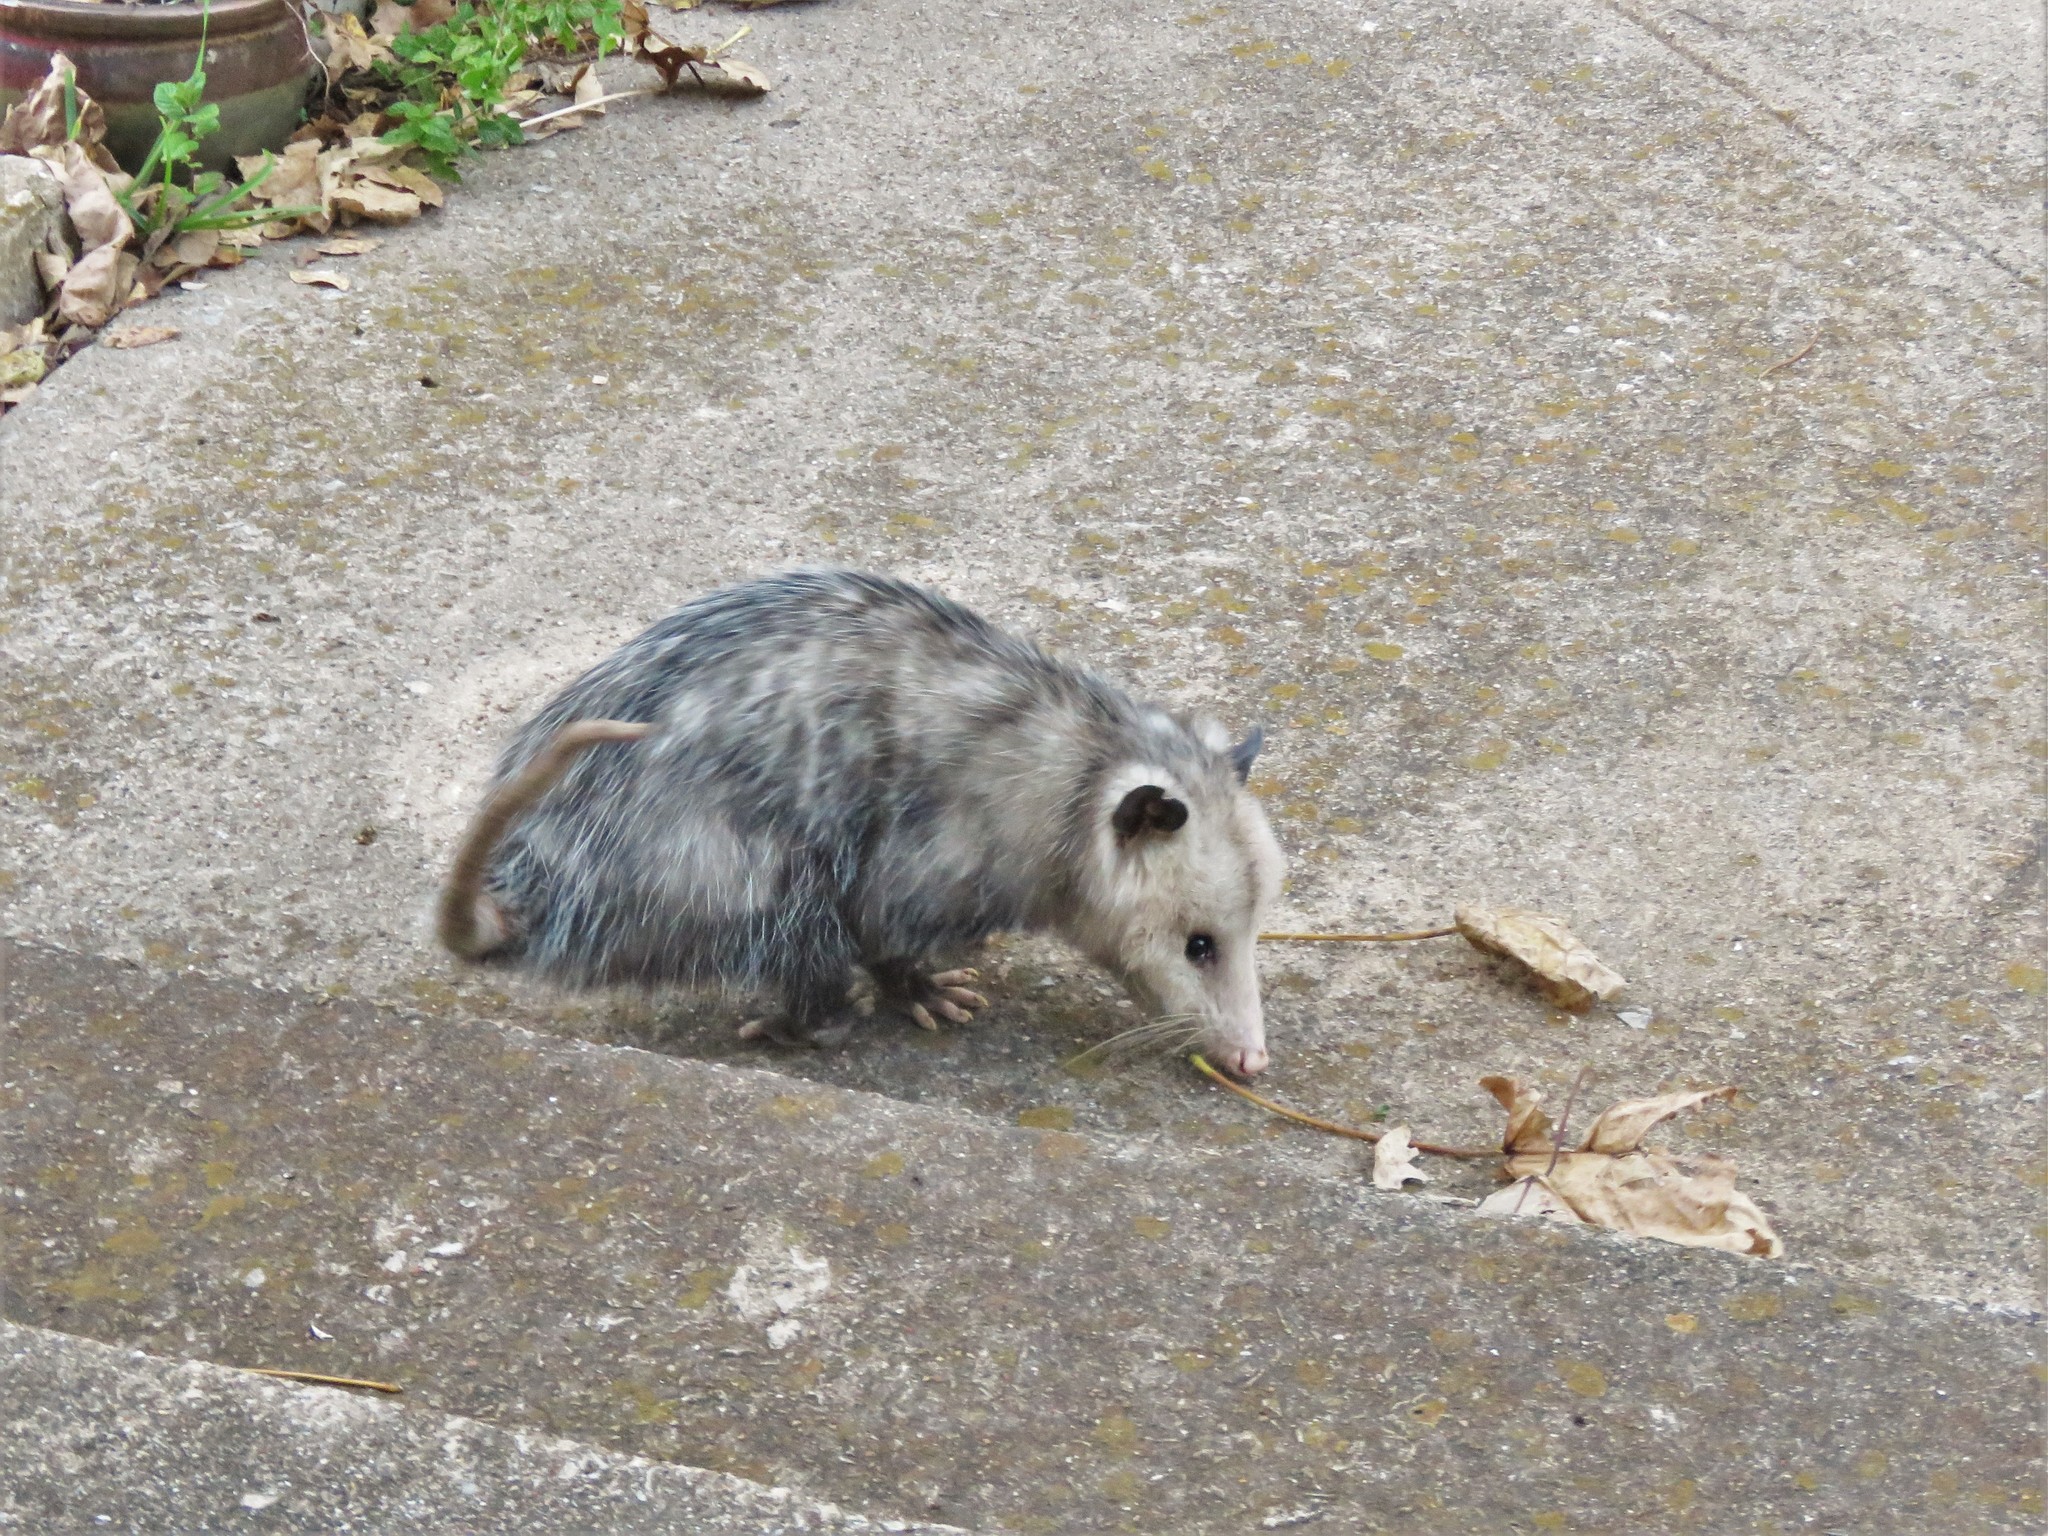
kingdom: Animalia
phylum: Chordata
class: Mammalia
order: Didelphimorphia
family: Didelphidae
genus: Didelphis
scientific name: Didelphis virginiana
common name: Virginia opossum
